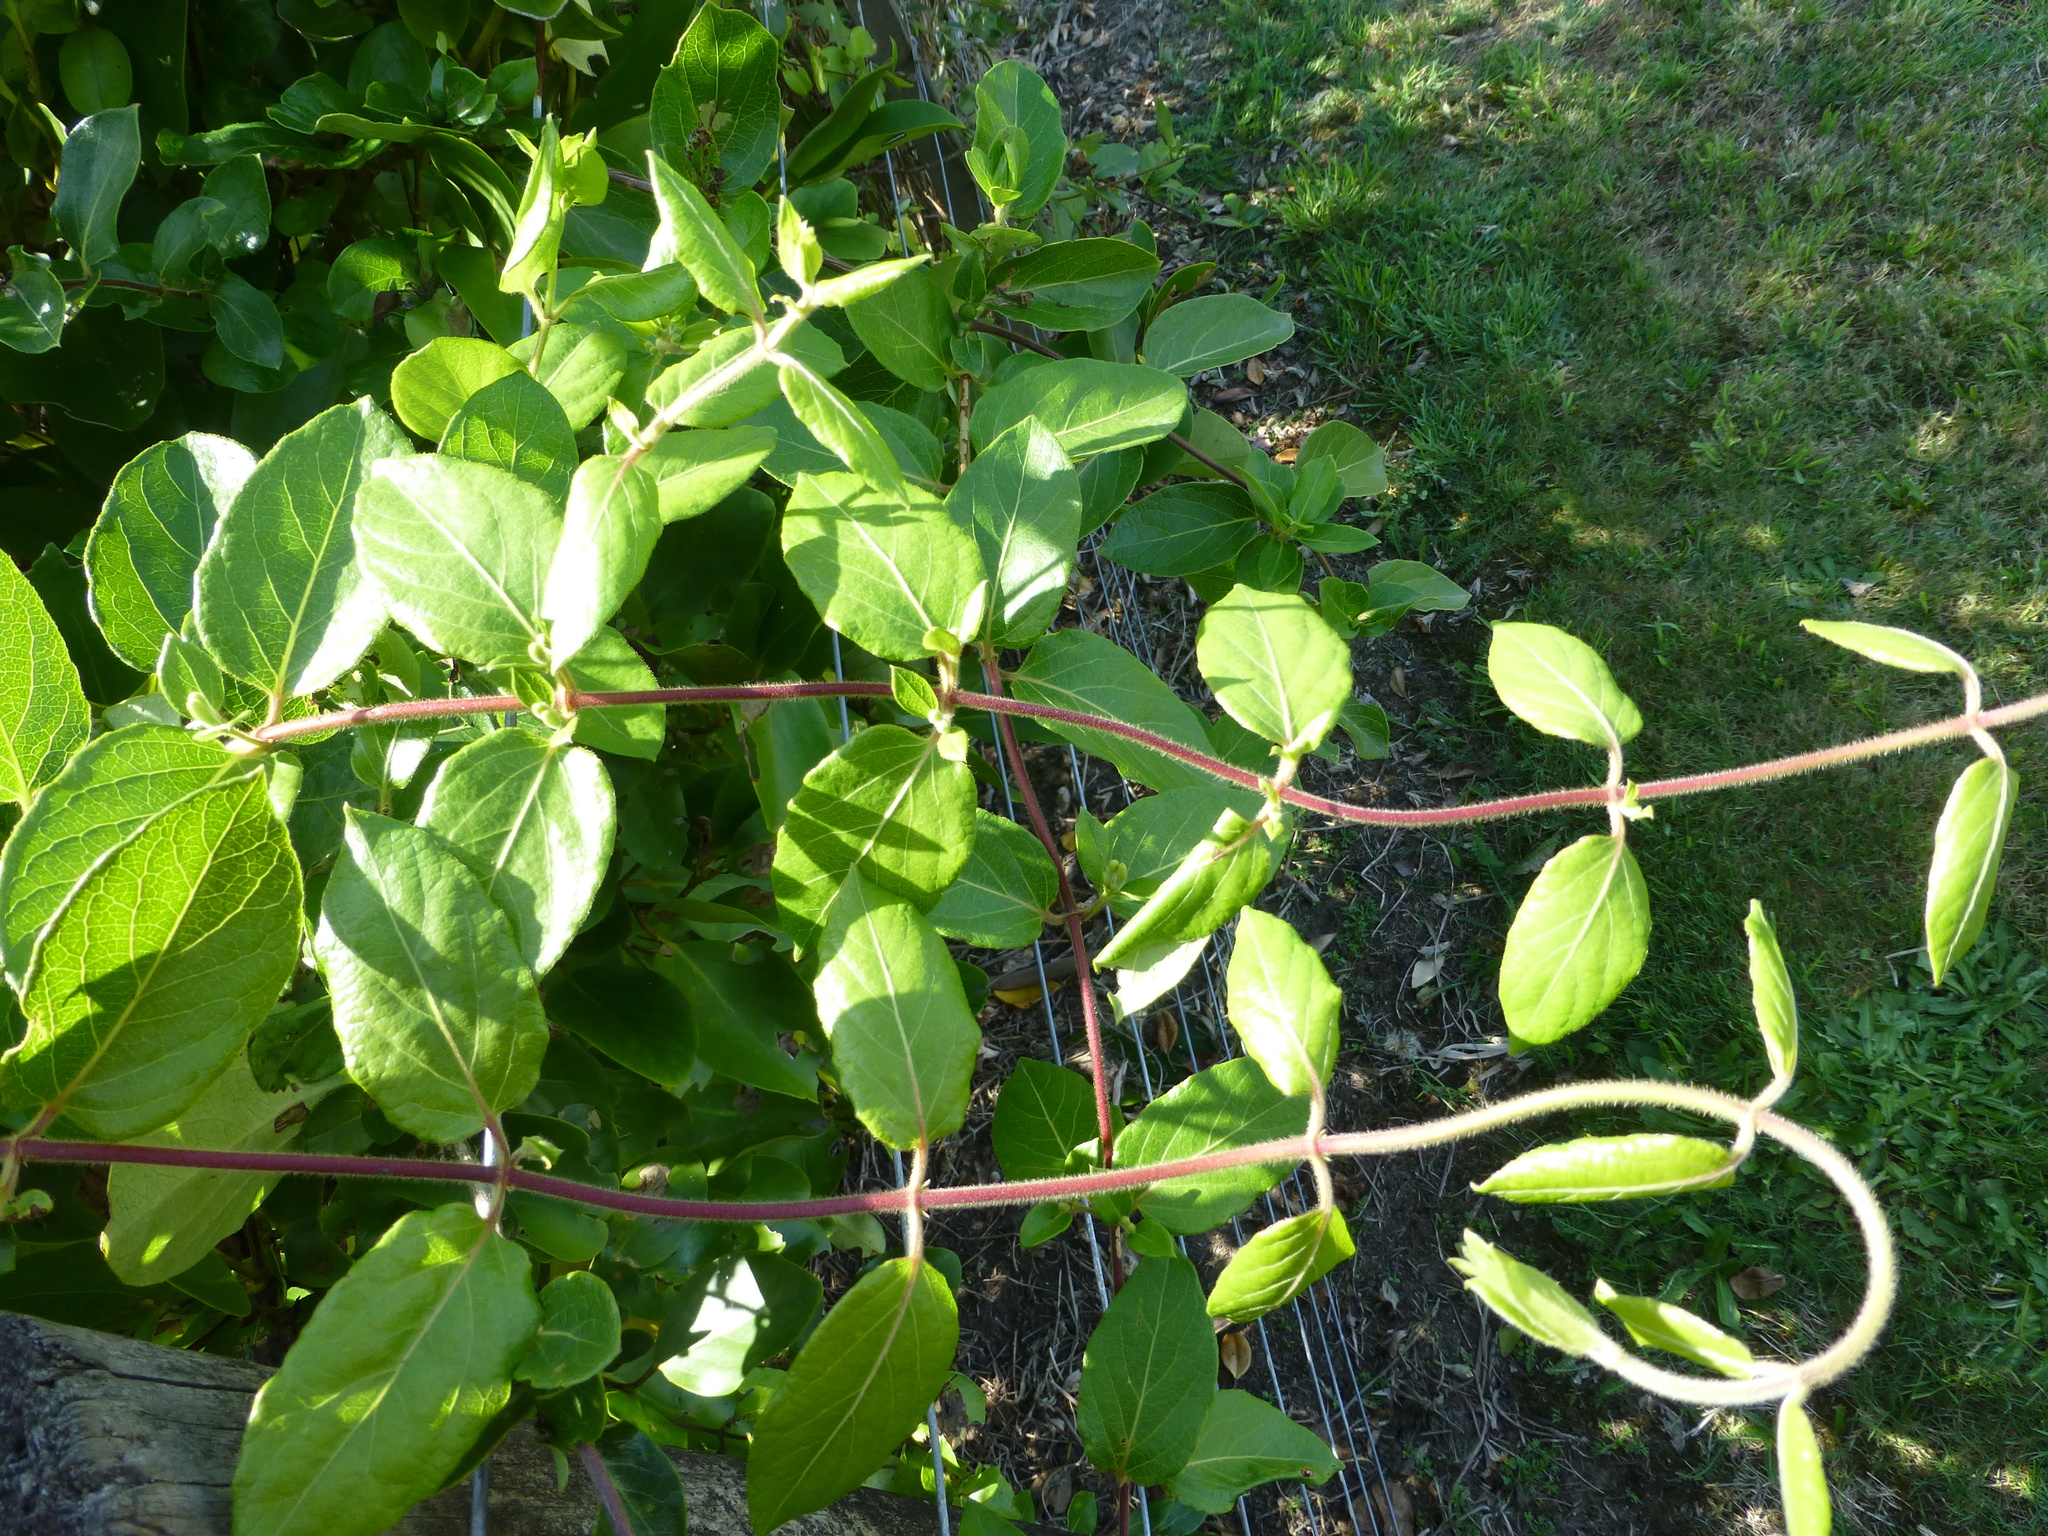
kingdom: Plantae
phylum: Tracheophyta
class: Magnoliopsida
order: Dipsacales
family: Caprifoliaceae
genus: Lonicera
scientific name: Lonicera japonica
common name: Japanese honeysuckle
